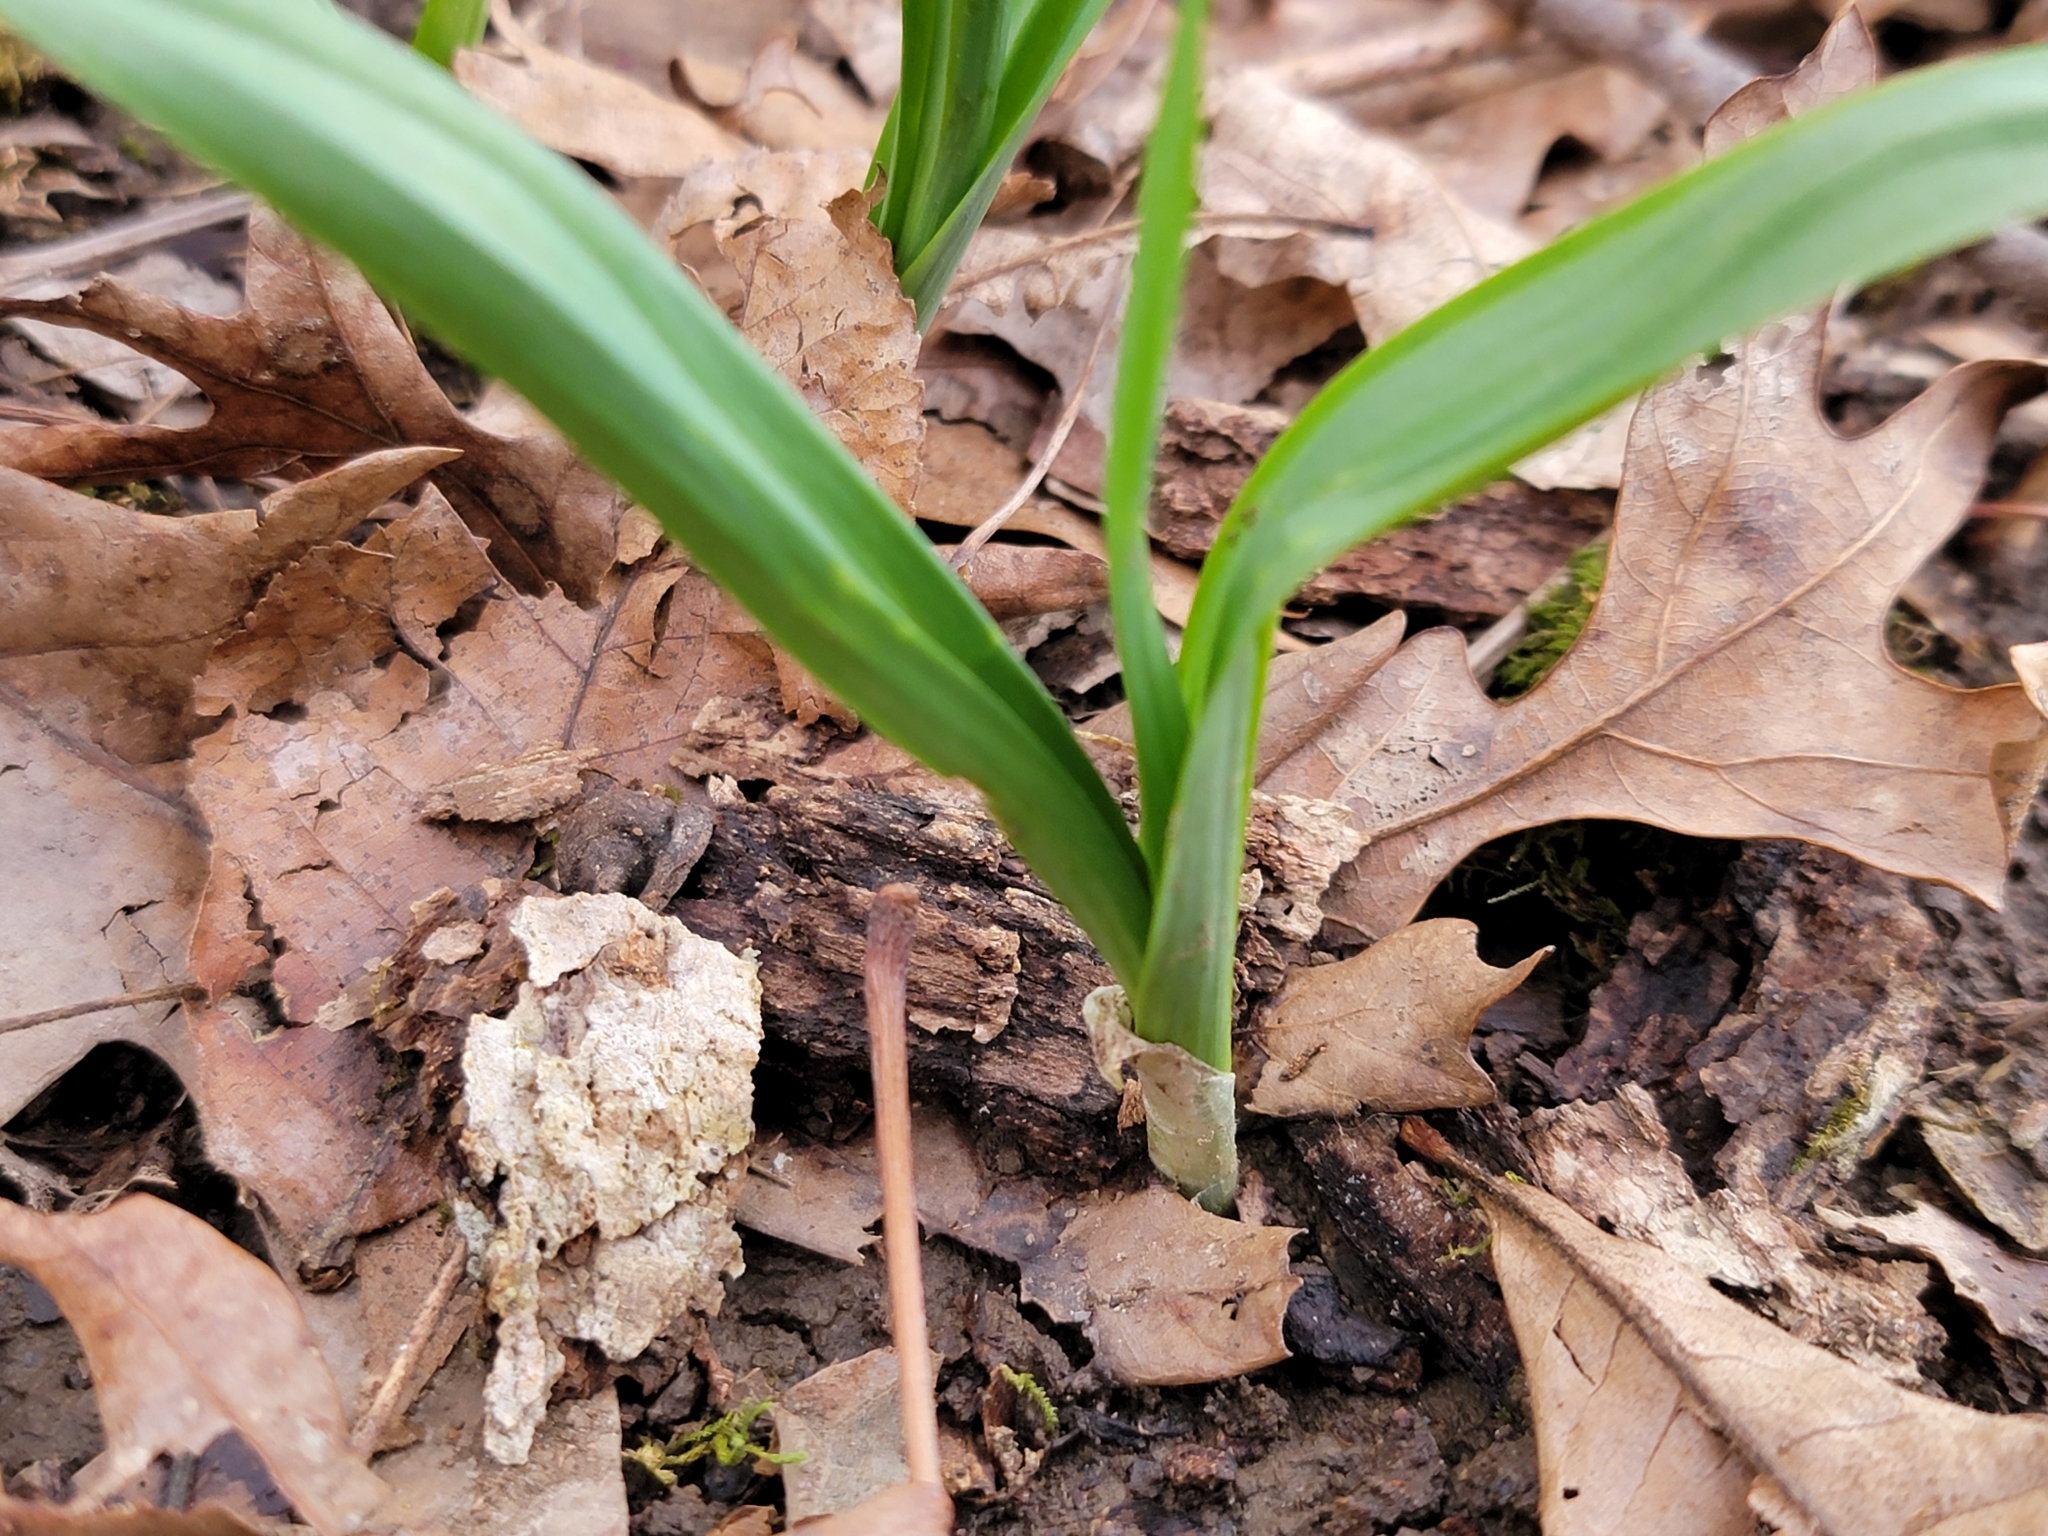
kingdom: Plantae
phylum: Tracheophyta
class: Liliopsida
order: Asparagales
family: Amaryllidaceae
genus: Allium
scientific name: Allium tricoccum
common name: Ramp
